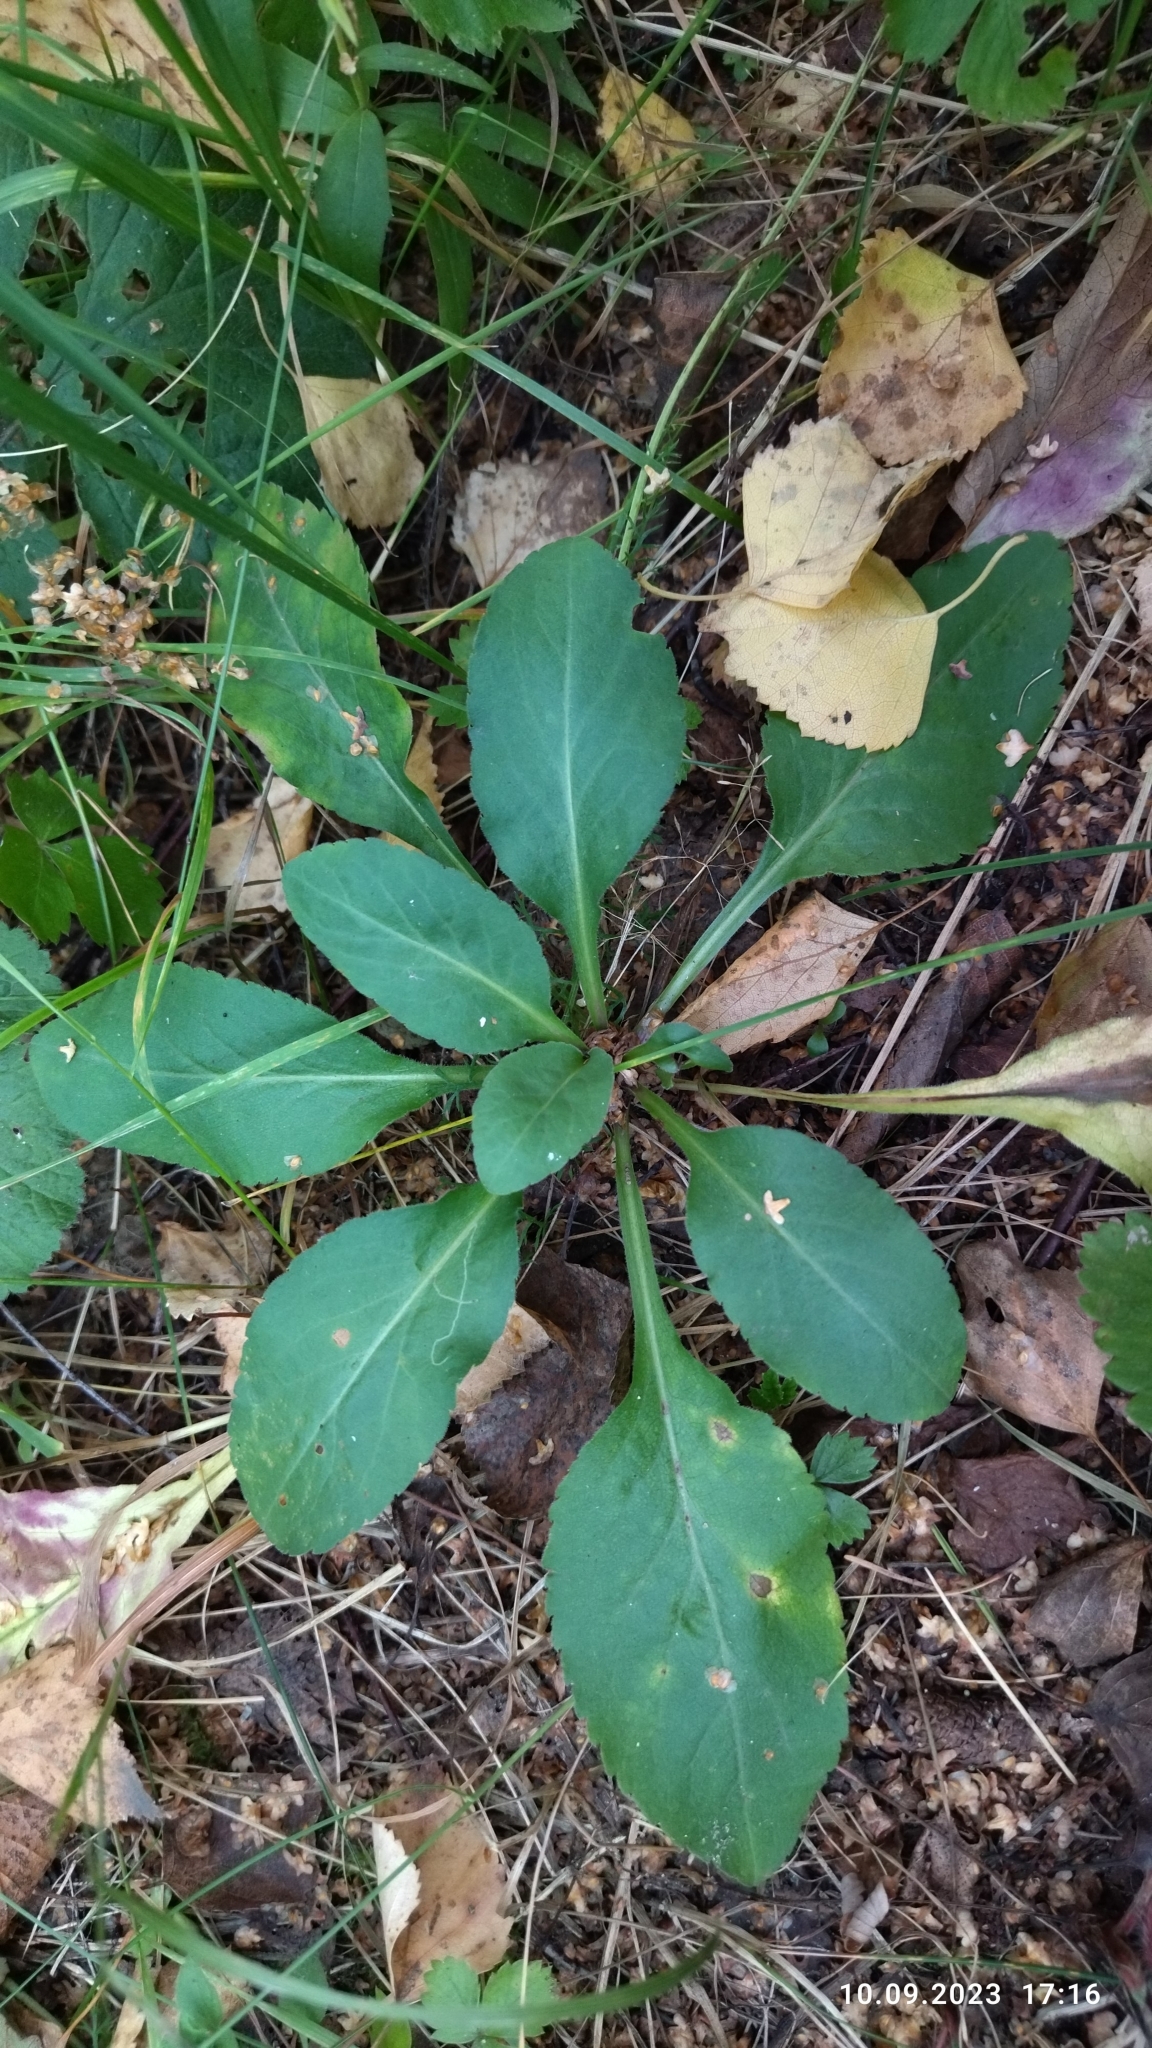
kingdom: Plantae
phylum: Tracheophyta
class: Magnoliopsida
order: Asterales
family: Asteraceae
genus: Solidago
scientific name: Solidago virgaurea
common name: Goldenrod
